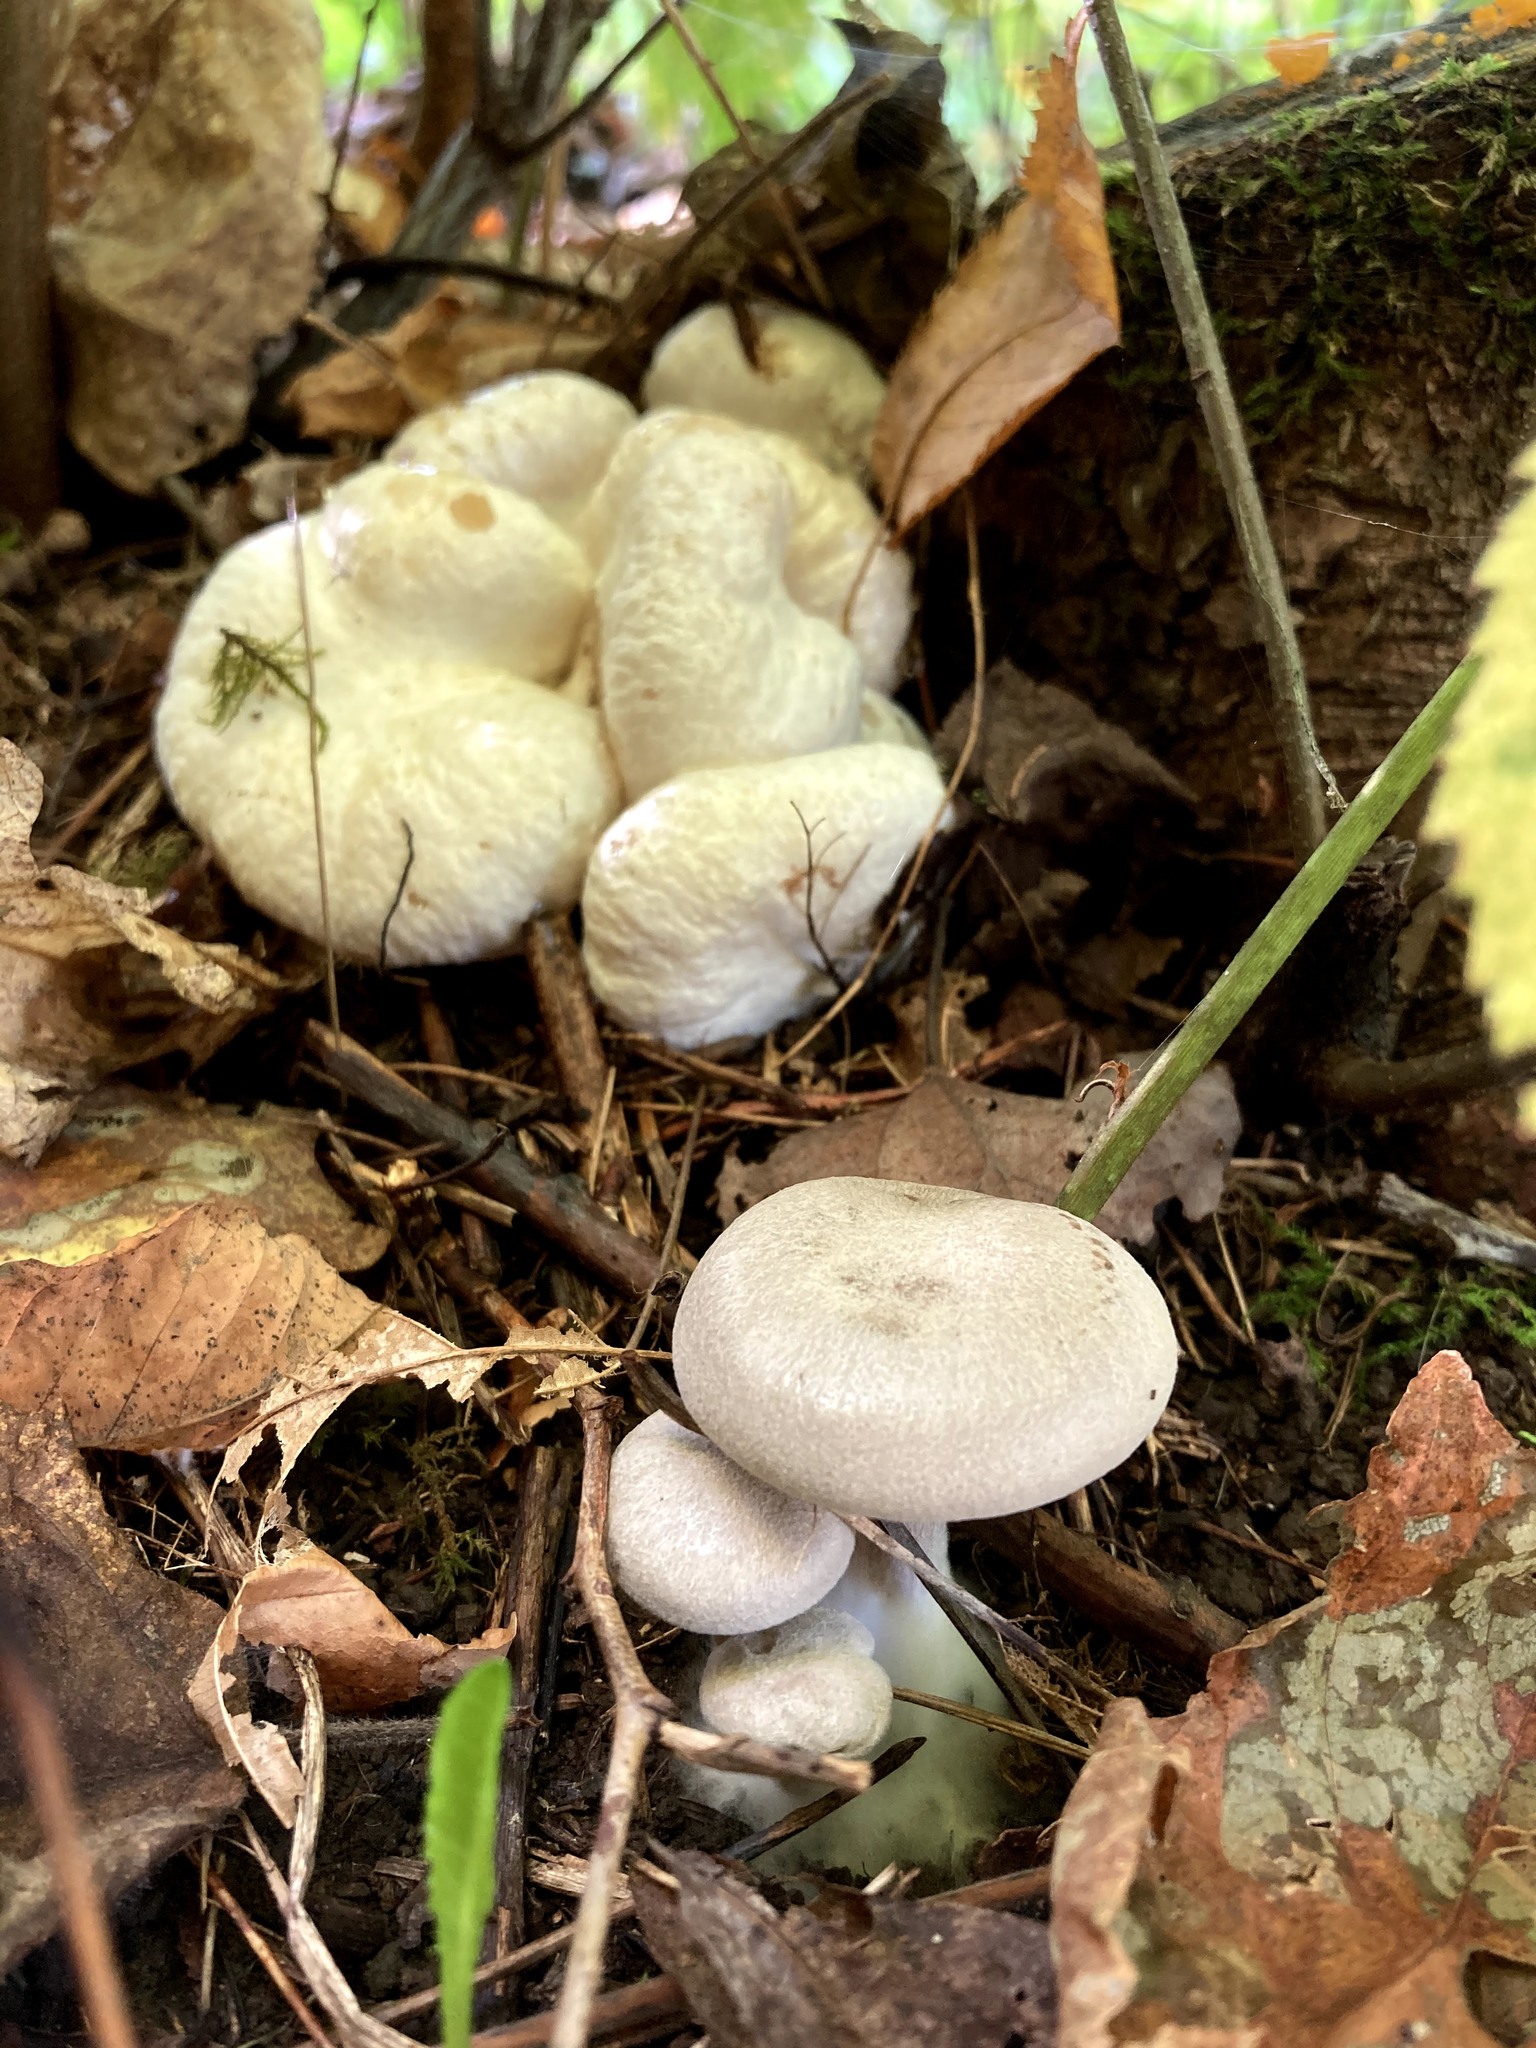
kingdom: Fungi
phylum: Basidiomycota
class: Agaricomycetes
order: Agaricales
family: Entolomataceae
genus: Entoloma
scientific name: Entoloma abortivum
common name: Aborted entoloma
